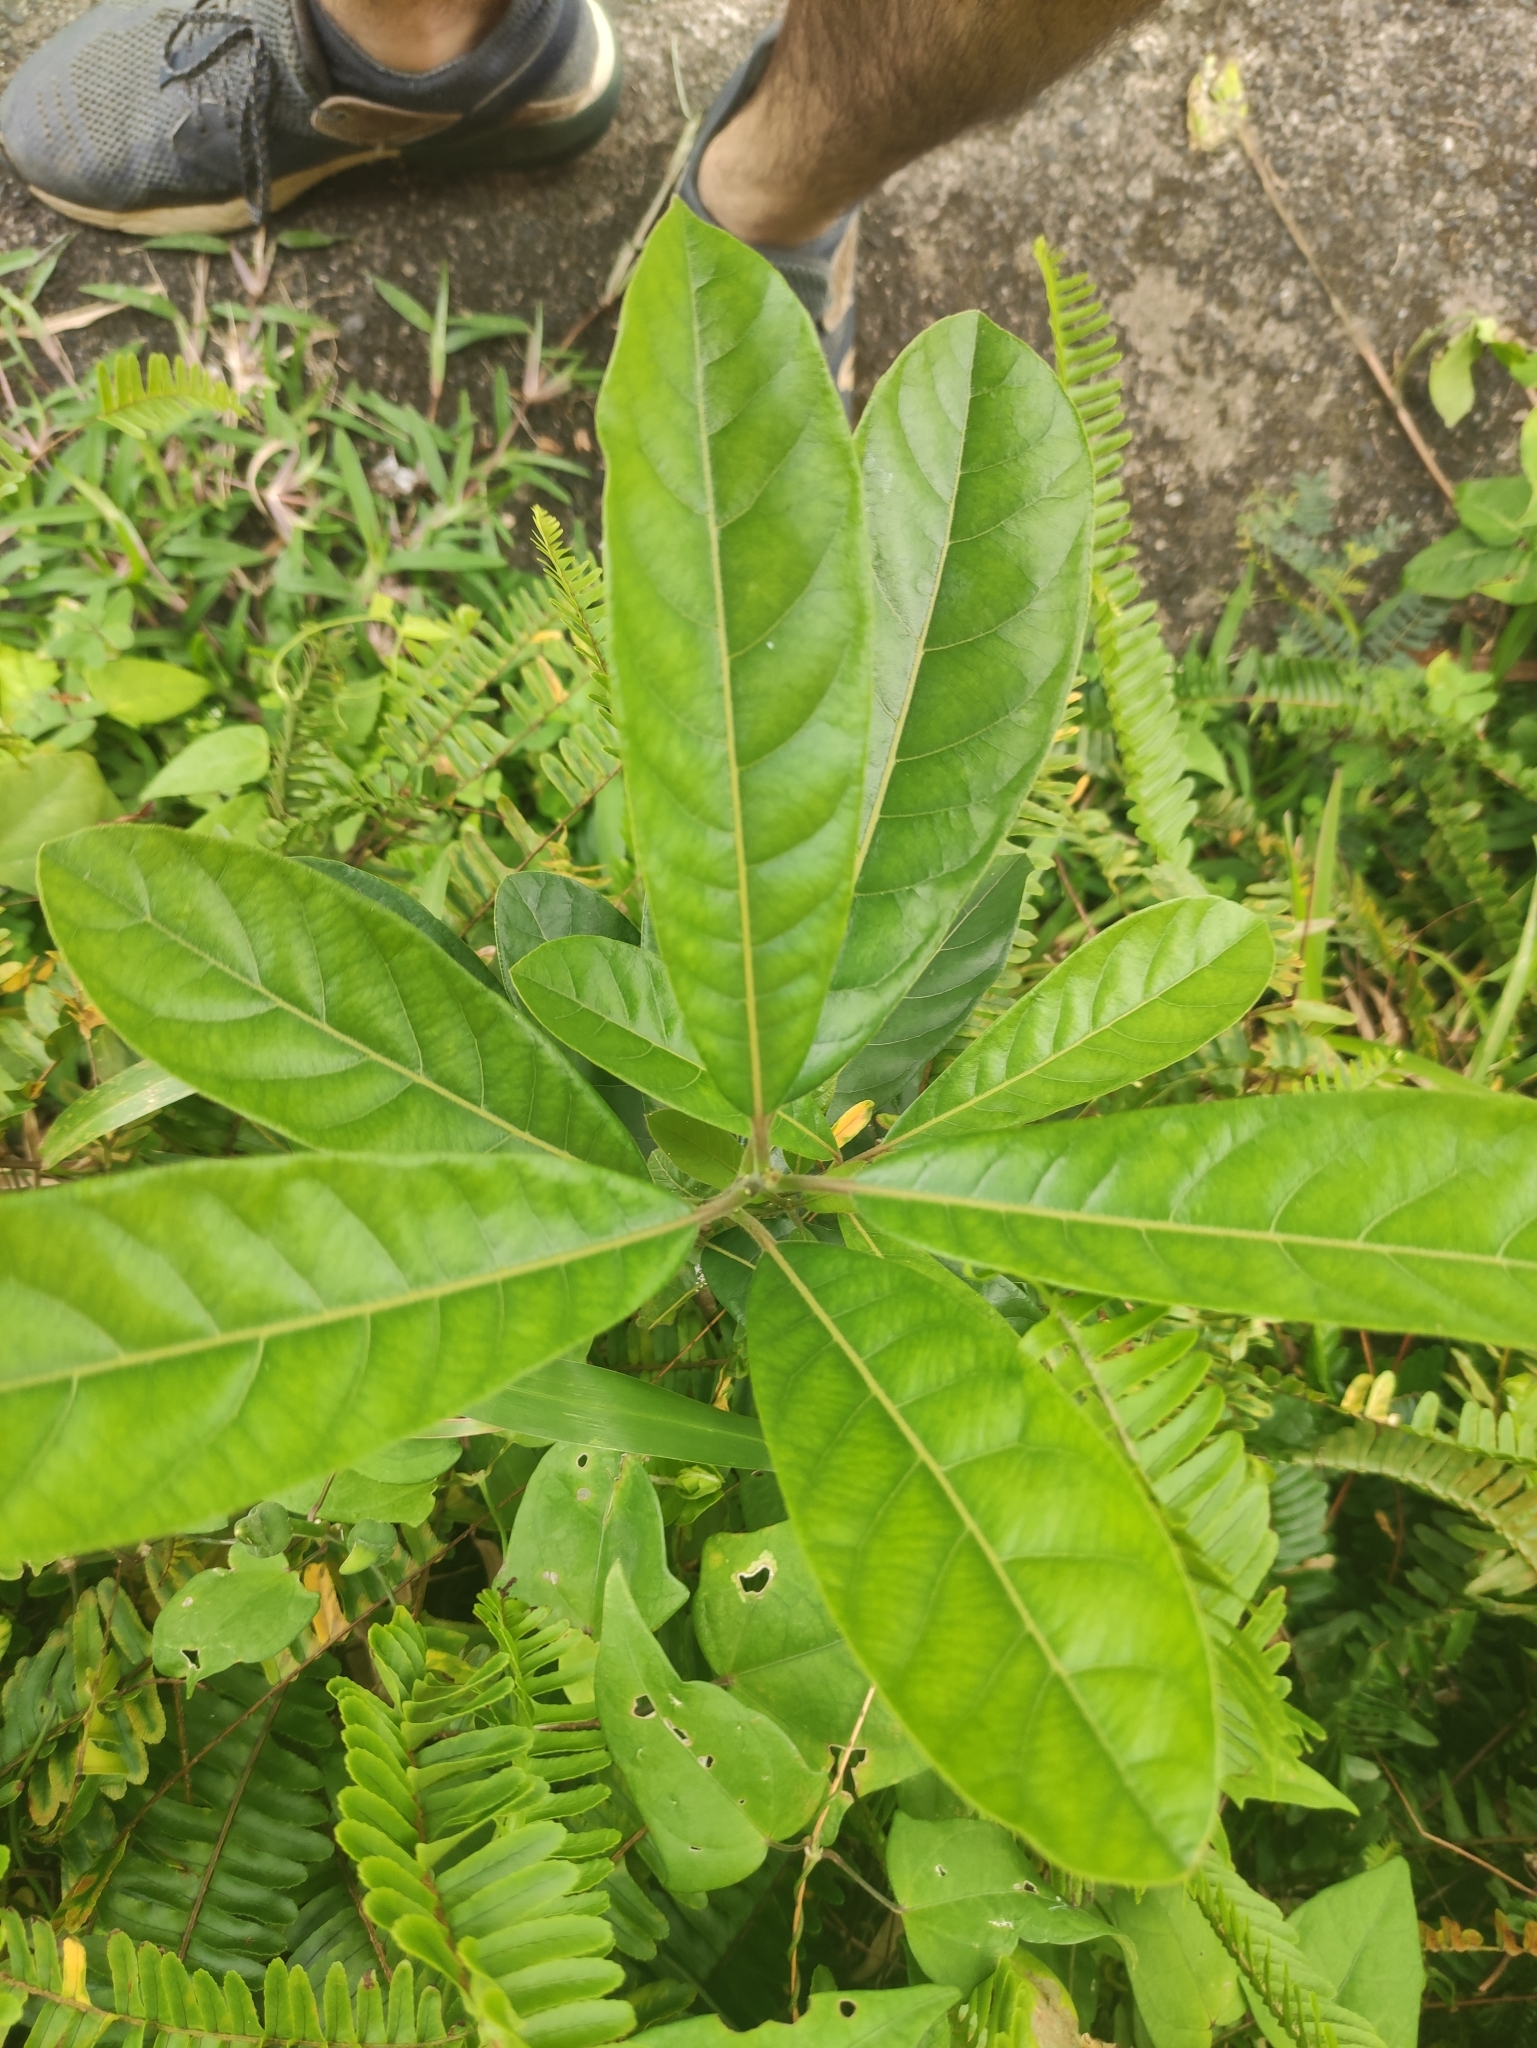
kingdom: Plantae
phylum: Tracheophyta
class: Magnoliopsida
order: Laurales
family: Lauraceae
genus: Litsea
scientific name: Litsea glutinosa
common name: Indian-laurel
